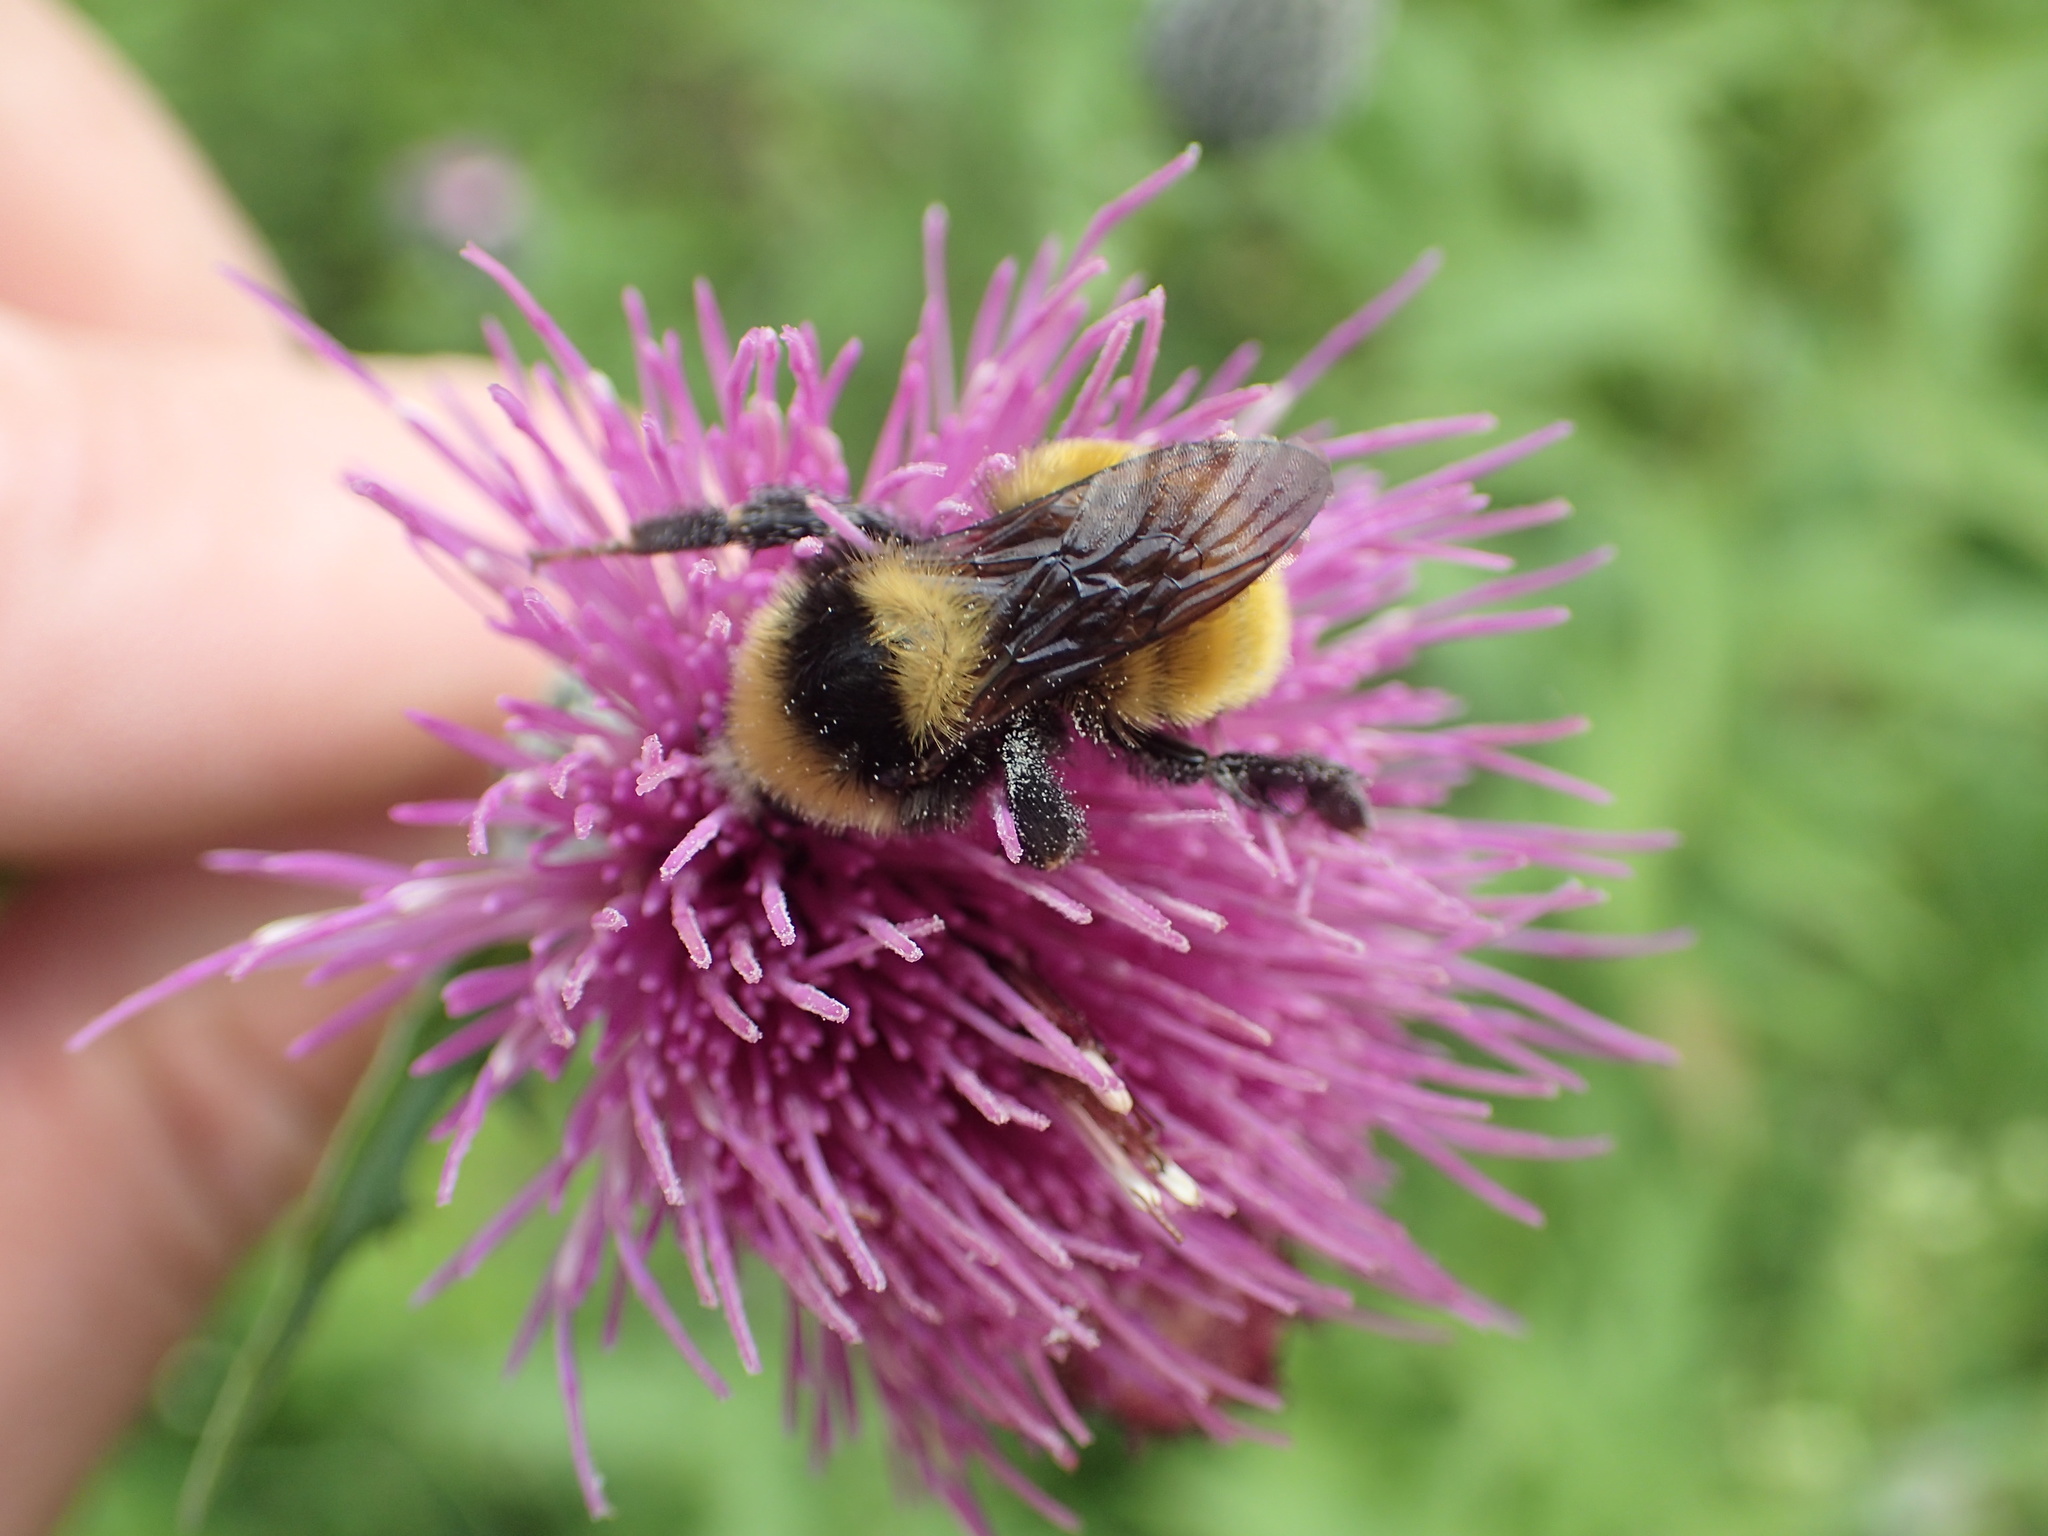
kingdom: Animalia
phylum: Arthropoda
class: Insecta
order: Hymenoptera
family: Apidae
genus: Bombus
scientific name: Bombus borealis
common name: Northern amber bumble bee
